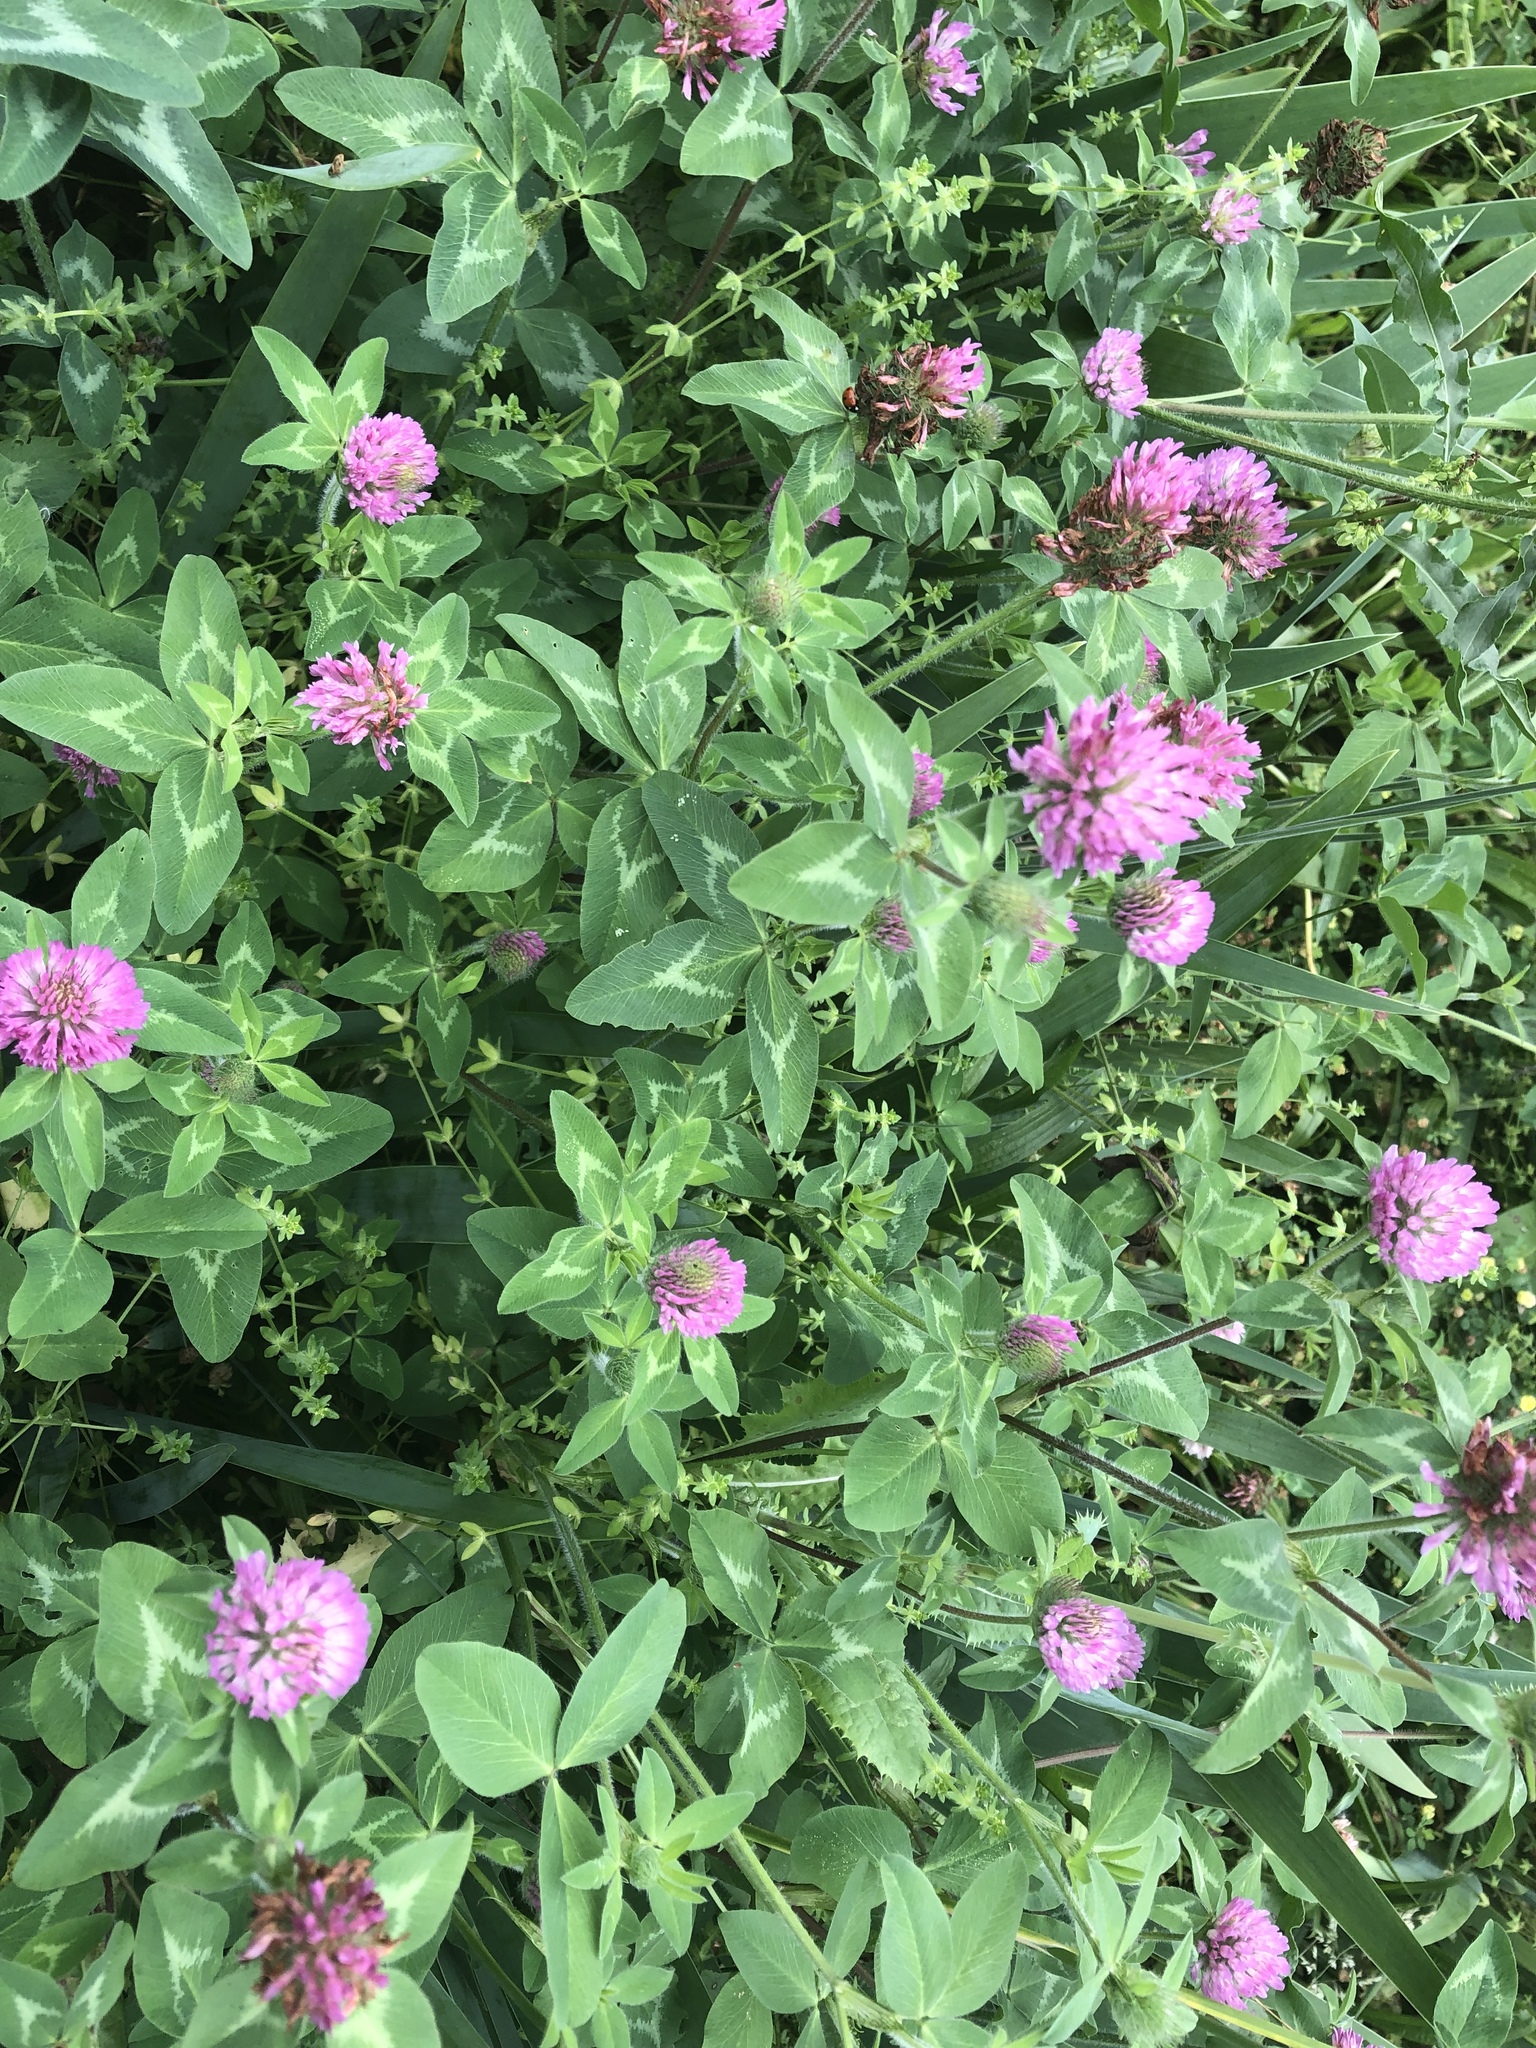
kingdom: Plantae
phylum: Tracheophyta
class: Magnoliopsida
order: Fabales
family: Fabaceae
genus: Trifolium
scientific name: Trifolium pratense
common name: Red clover
